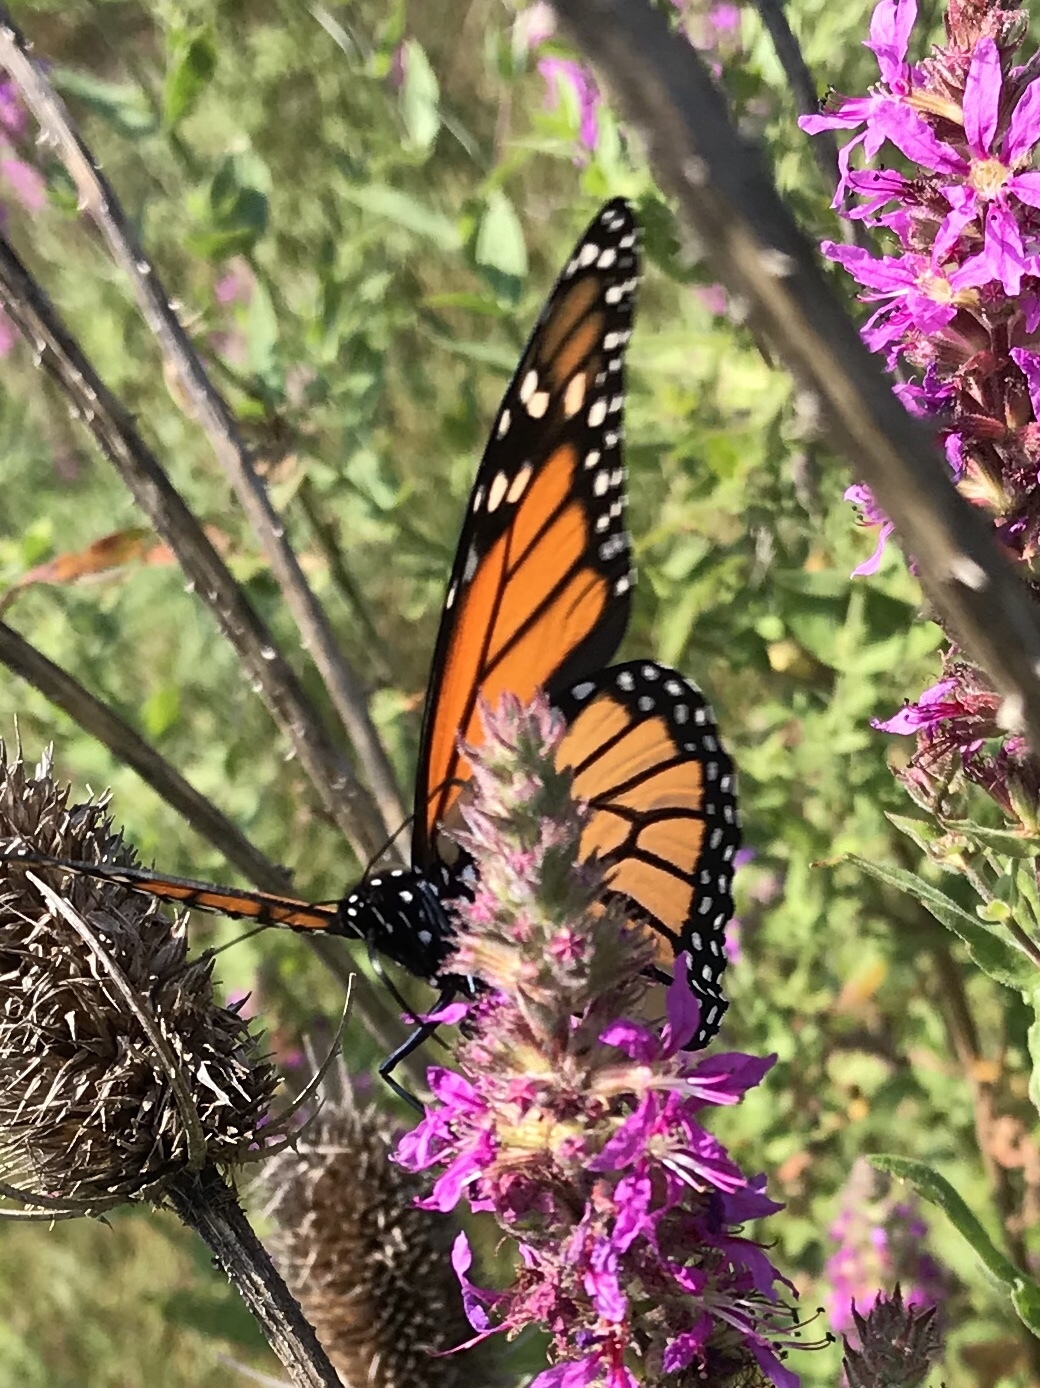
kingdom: Animalia
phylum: Arthropoda
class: Insecta
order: Lepidoptera
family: Nymphalidae
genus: Danaus
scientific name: Danaus plexippus
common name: Monarch
